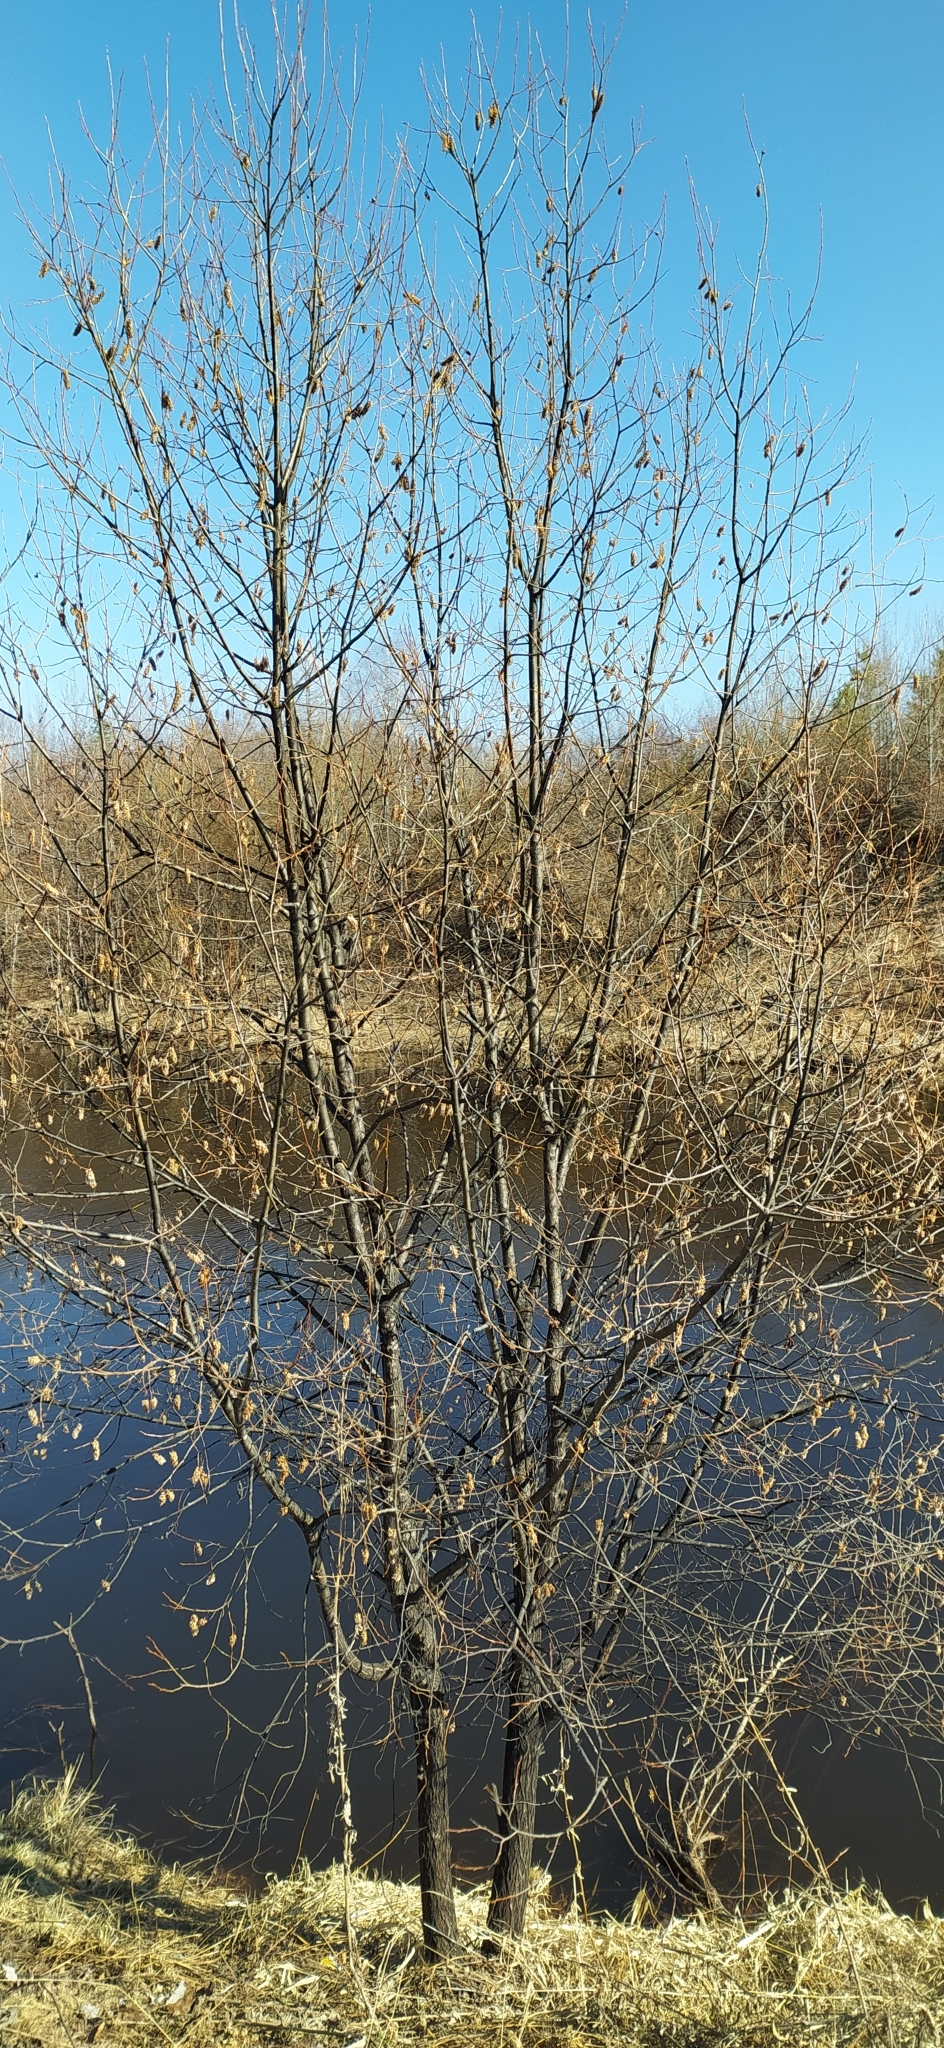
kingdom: Plantae
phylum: Tracheophyta
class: Magnoliopsida
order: Malpighiales
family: Salicaceae
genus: Salix
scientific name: Salix pentandra
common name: Bay willow
